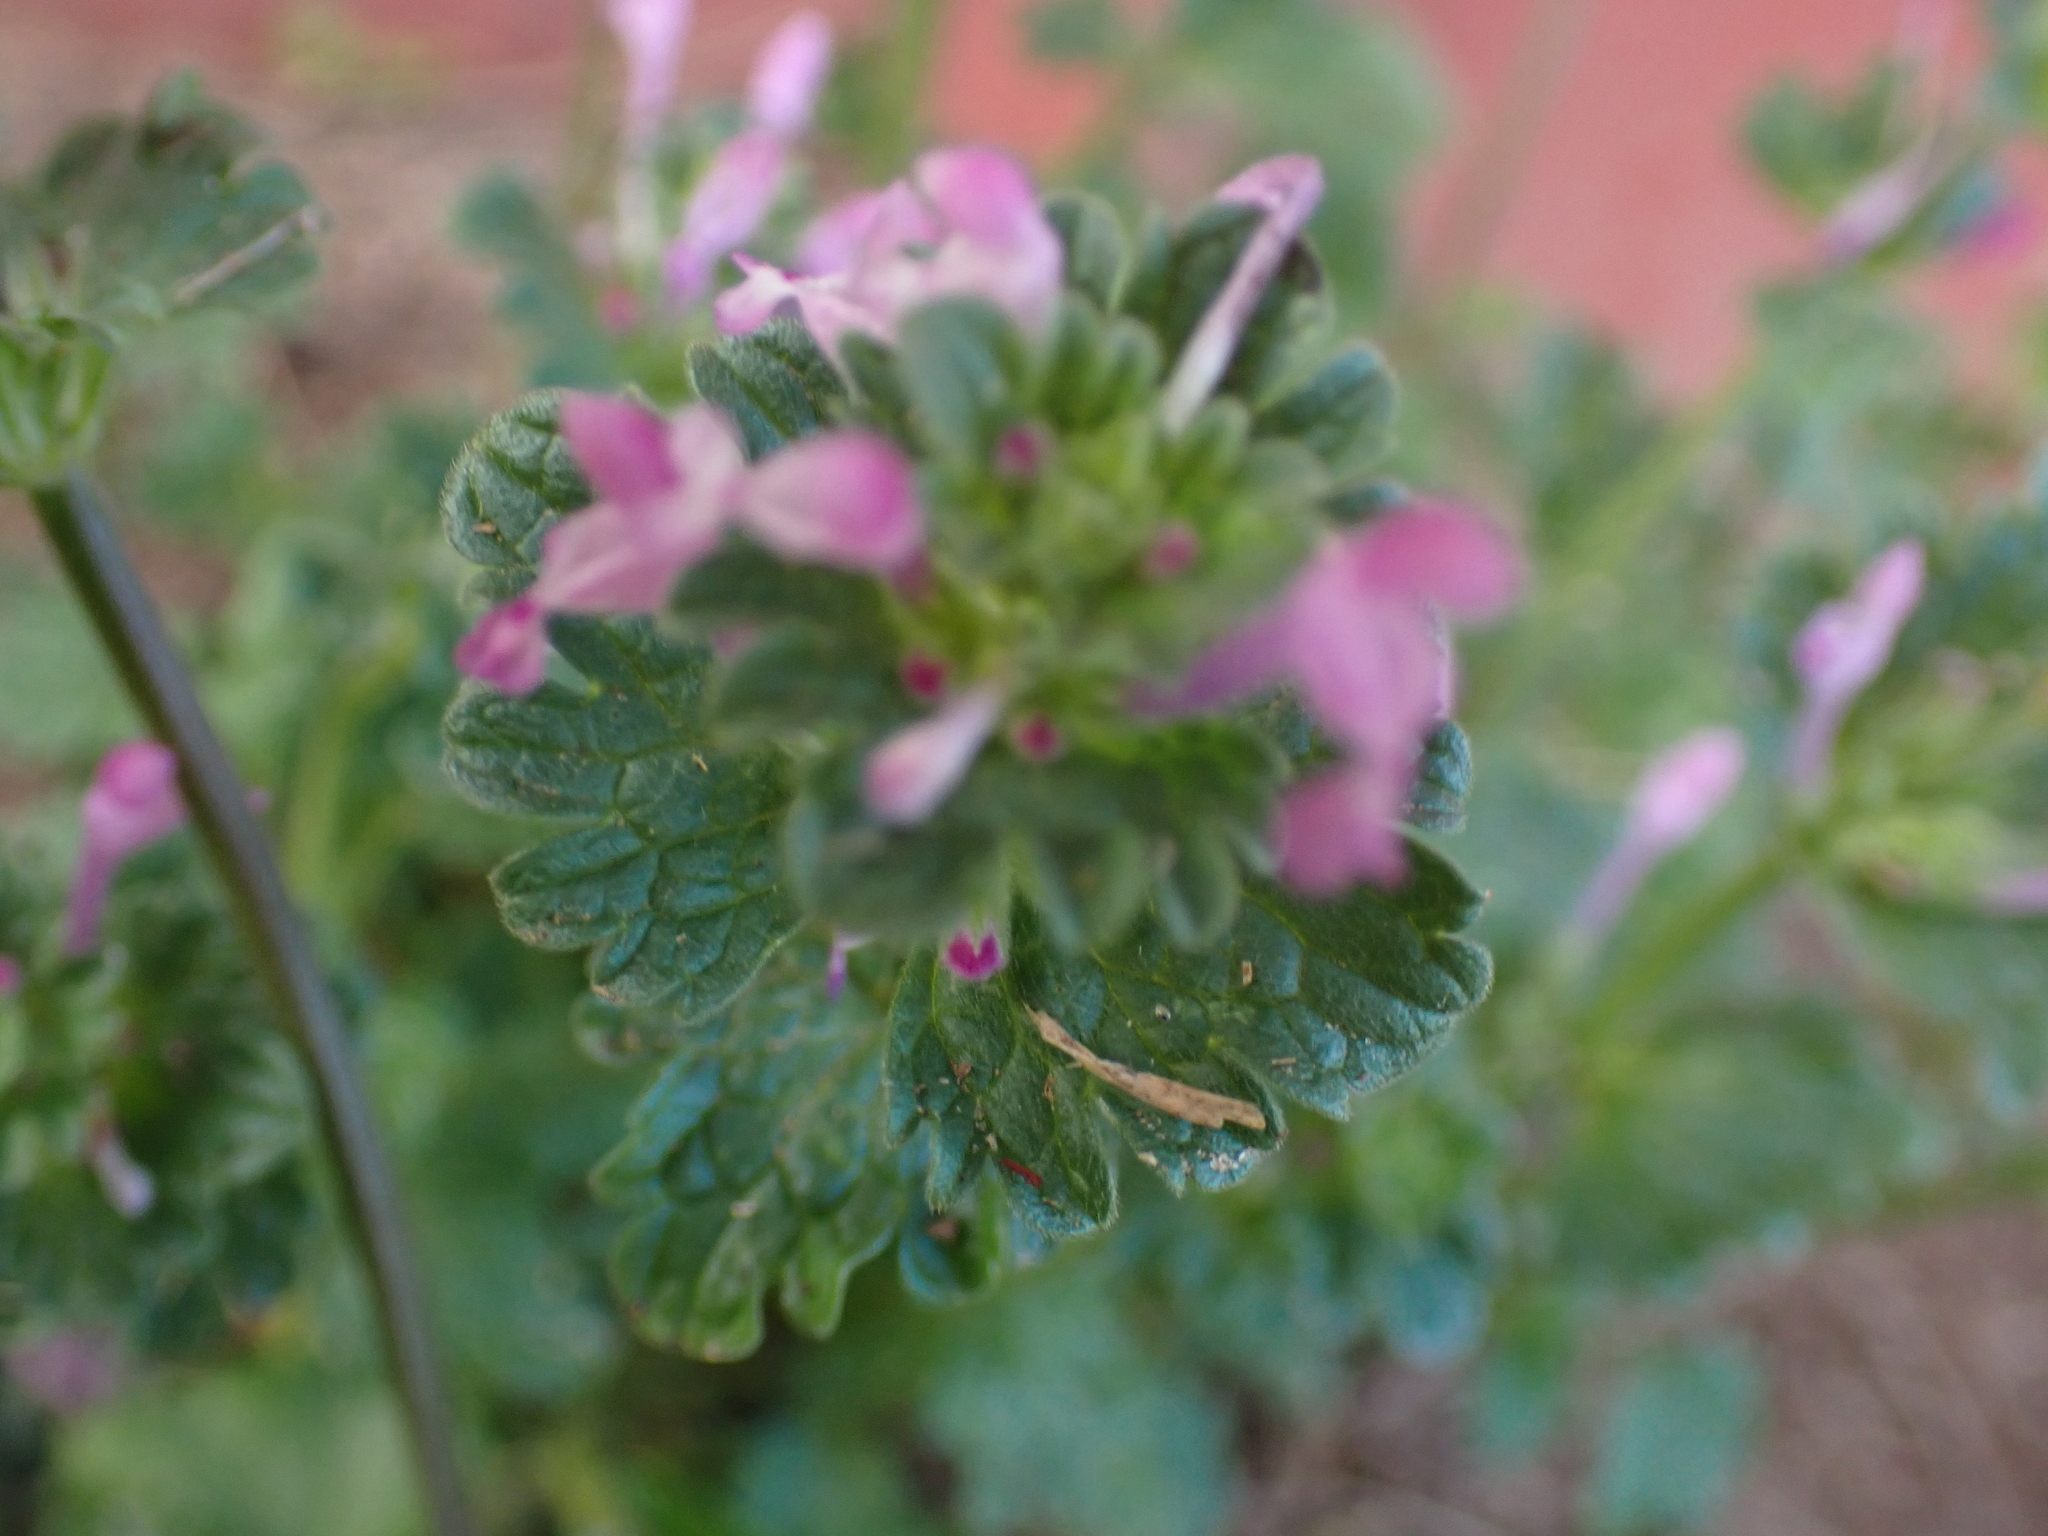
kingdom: Plantae
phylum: Tracheophyta
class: Magnoliopsida
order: Lamiales
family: Lamiaceae
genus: Lamium
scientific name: Lamium amplexicaule
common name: Henbit dead-nettle
